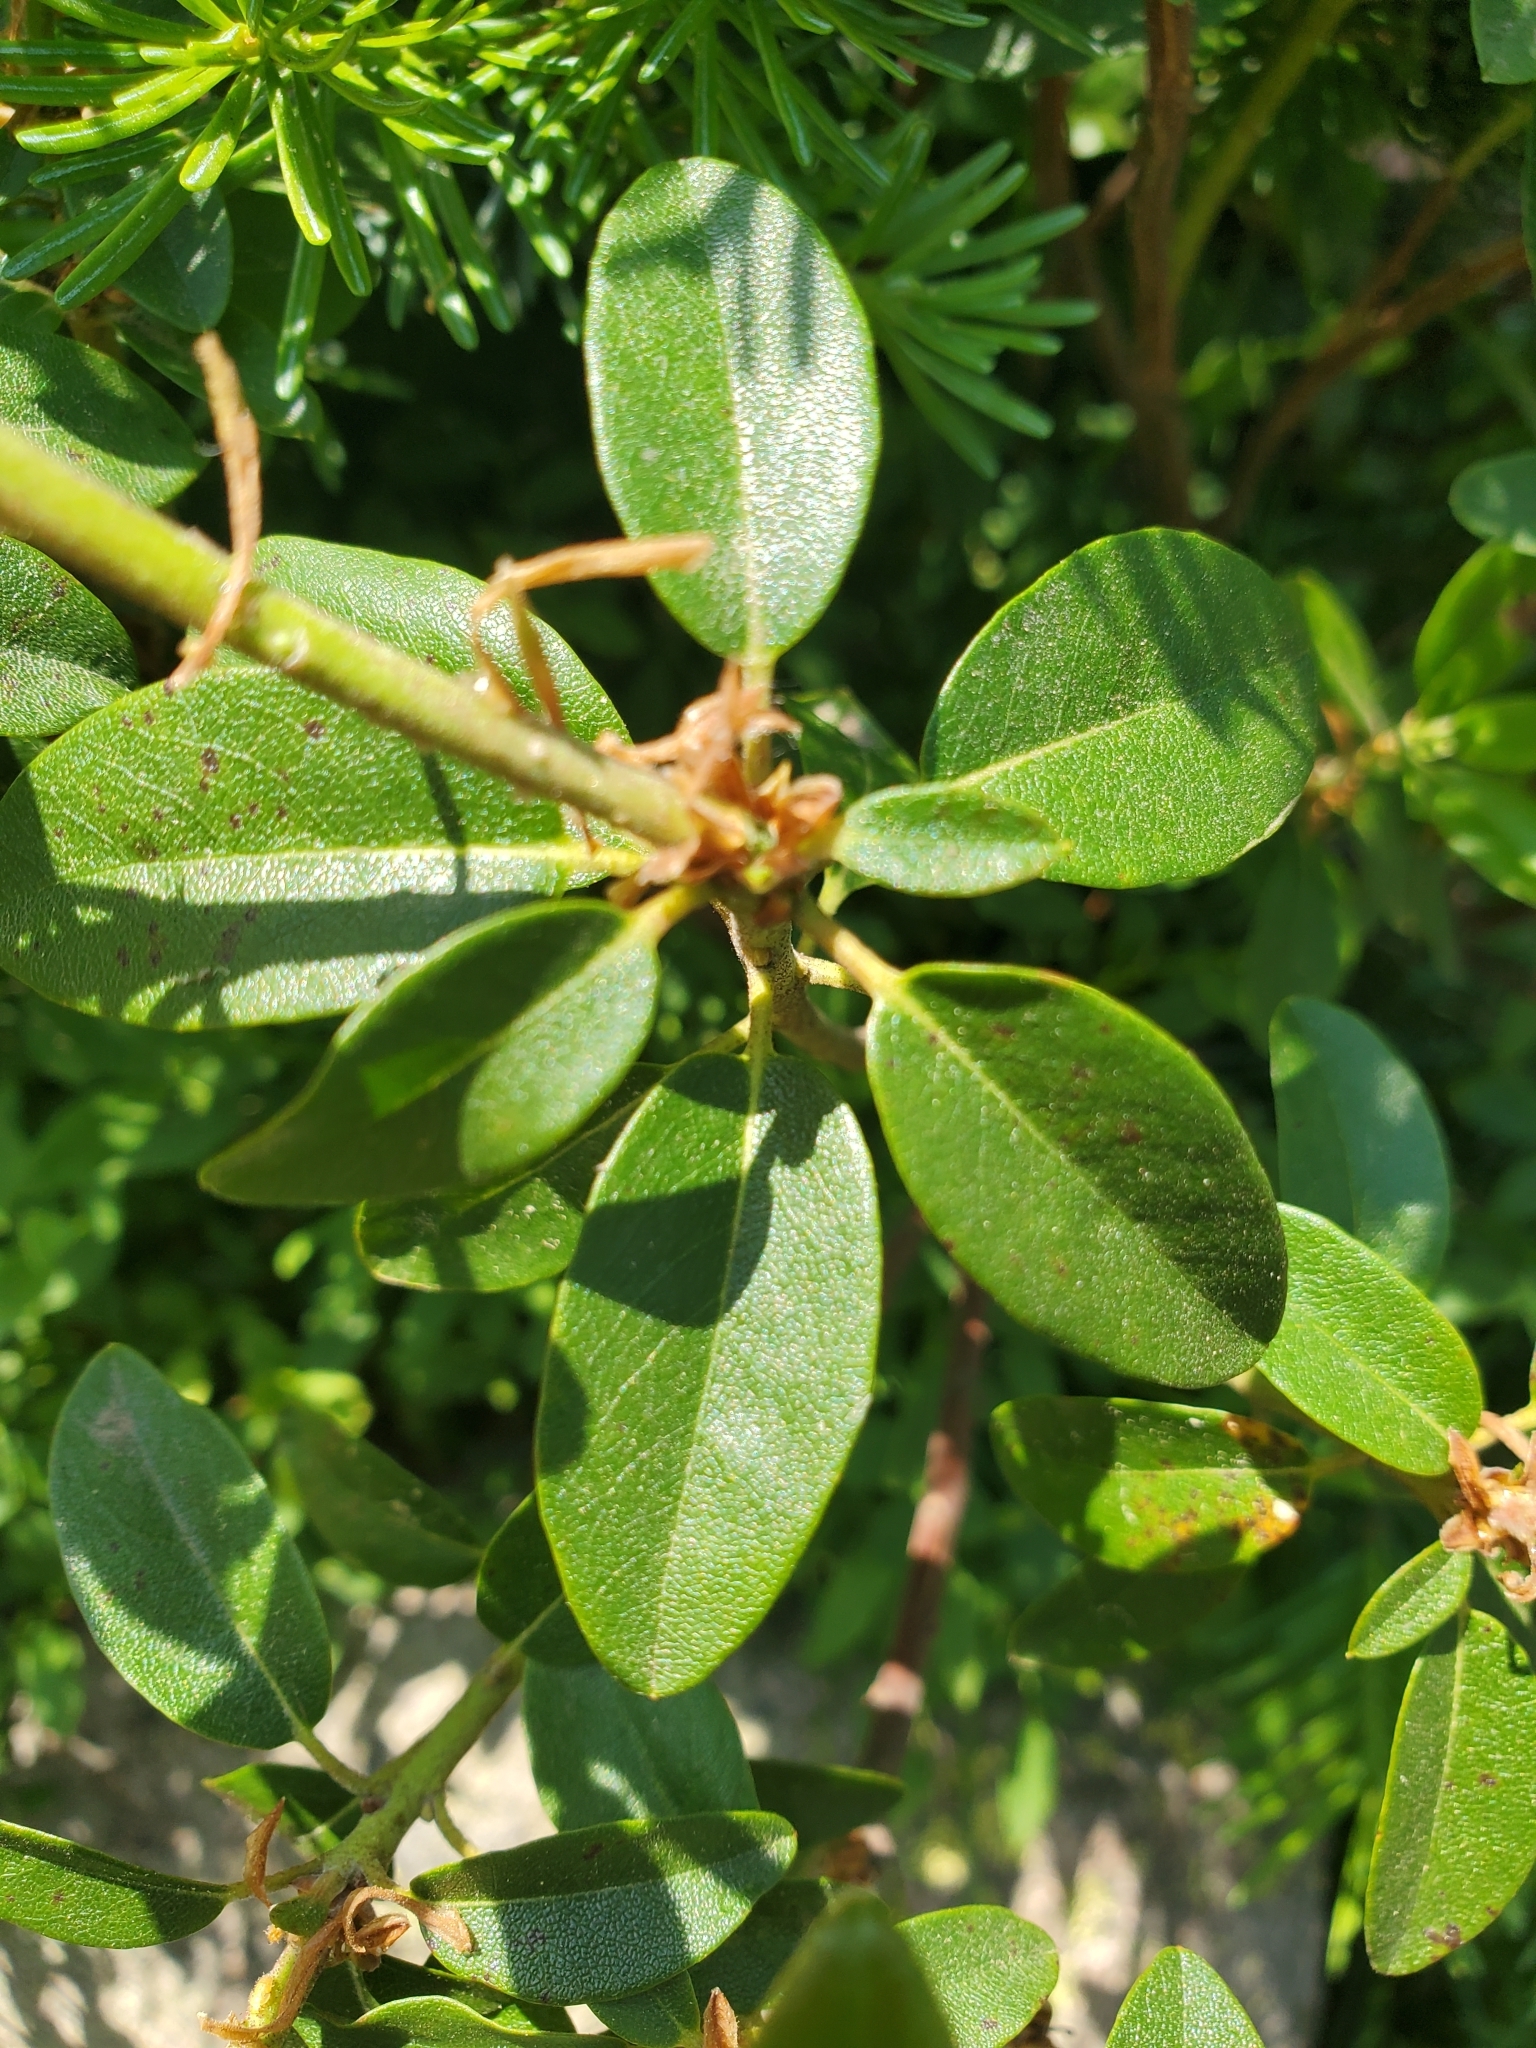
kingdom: Plantae
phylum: Tracheophyta
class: Magnoliopsida
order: Ericales
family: Ericaceae
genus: Rhododendron
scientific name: Rhododendron columbianum
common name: Western labrador tea
